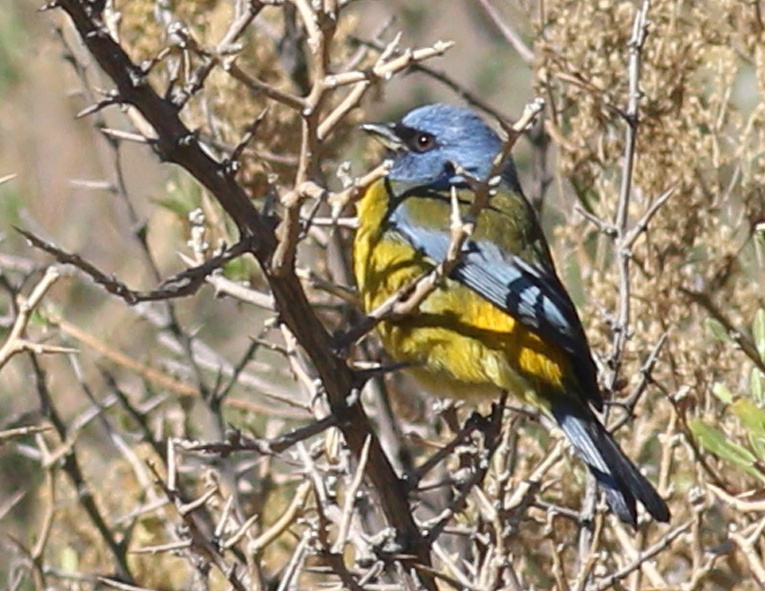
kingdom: Animalia
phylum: Chordata
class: Aves
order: Passeriformes
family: Thraupidae
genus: Rauenia
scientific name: Rauenia bonariensis
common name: Blue-and-yellow tanager
